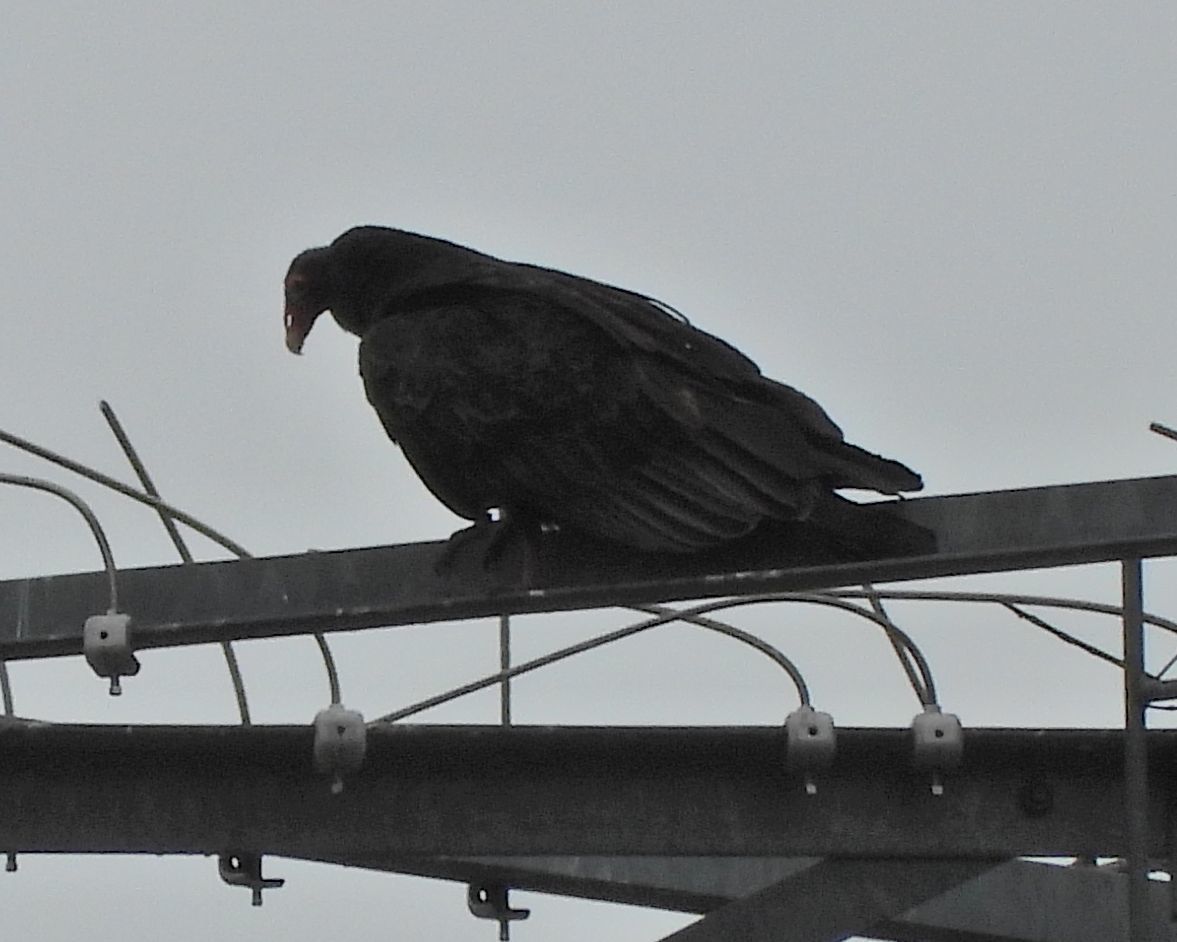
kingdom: Animalia
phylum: Chordata
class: Aves
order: Accipitriformes
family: Cathartidae
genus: Cathartes
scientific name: Cathartes aura
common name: Turkey vulture
